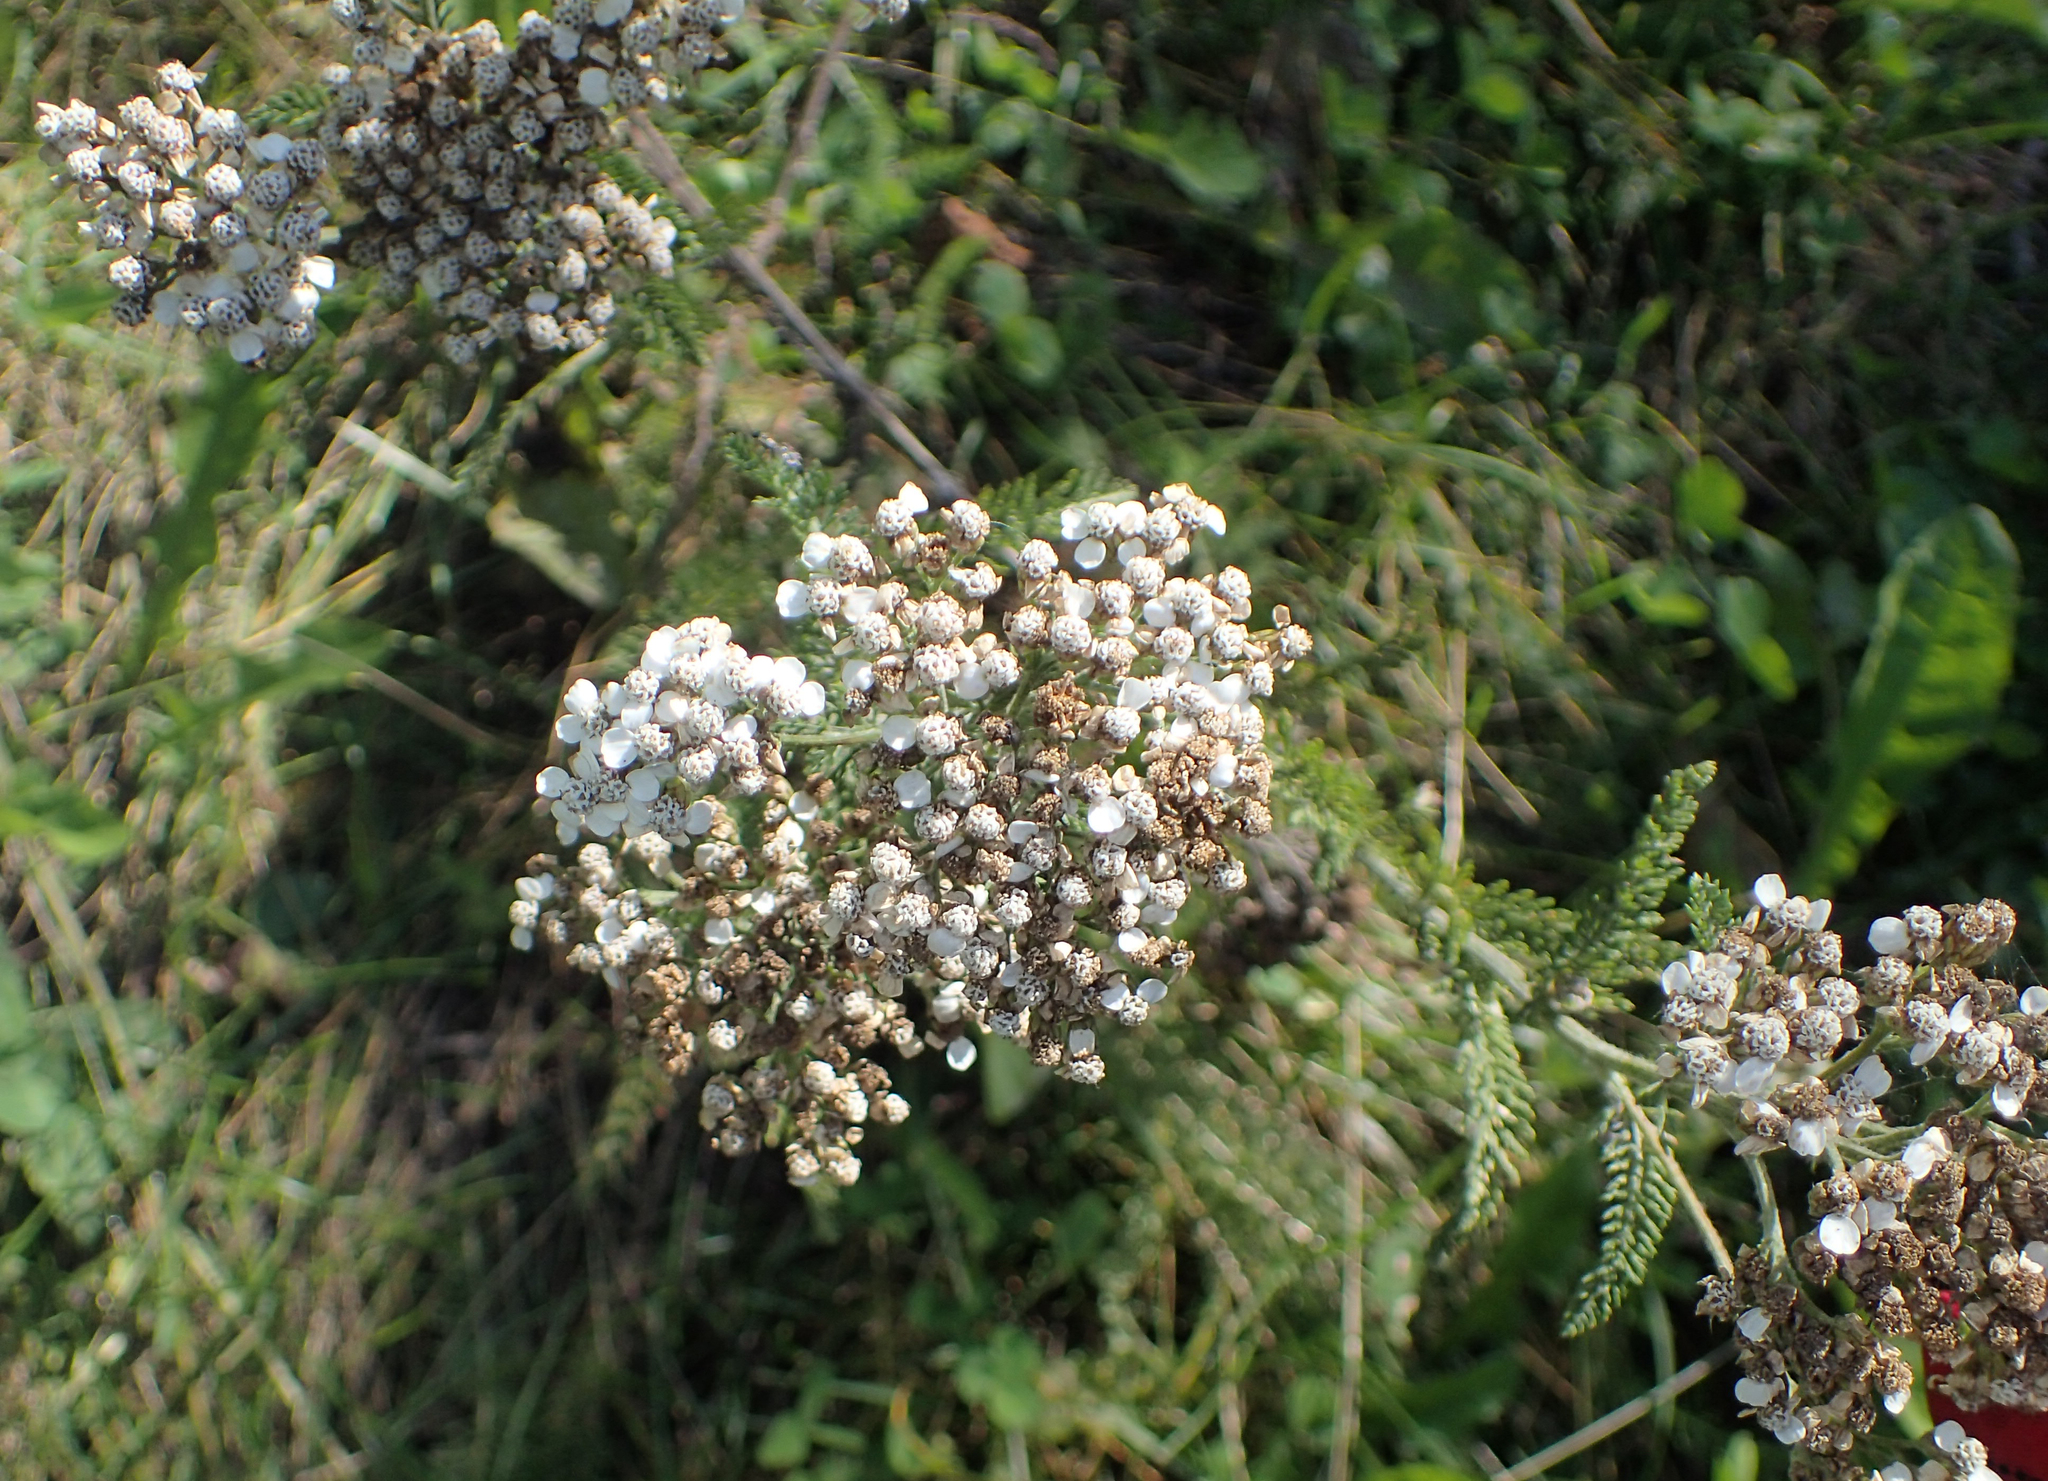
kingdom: Plantae
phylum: Tracheophyta
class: Magnoliopsida
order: Asterales
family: Asteraceae
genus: Achillea
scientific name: Achillea millefolium
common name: Yarrow
